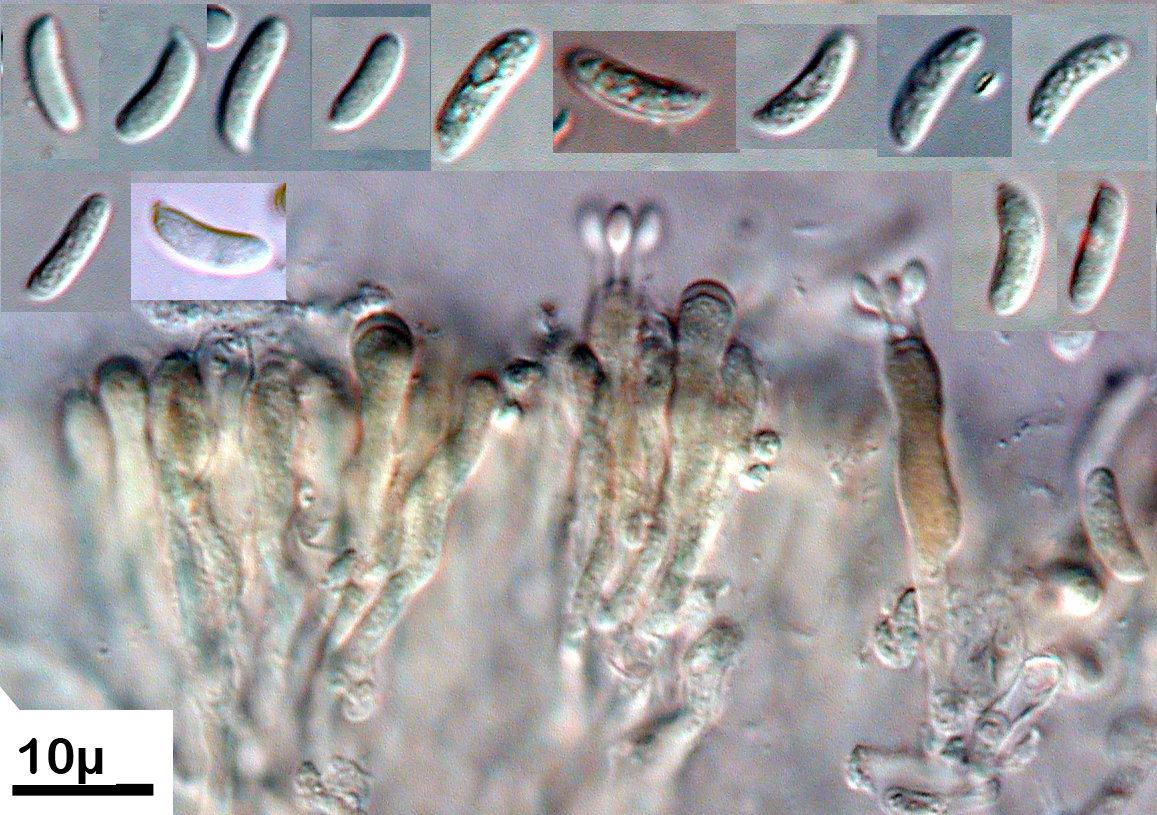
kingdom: Fungi
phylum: Basidiomycota
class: Agaricomycetes
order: Agaricales
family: Schizophyllaceae
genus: Schizophyllum
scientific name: Schizophyllum amplum
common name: Poplar bells
